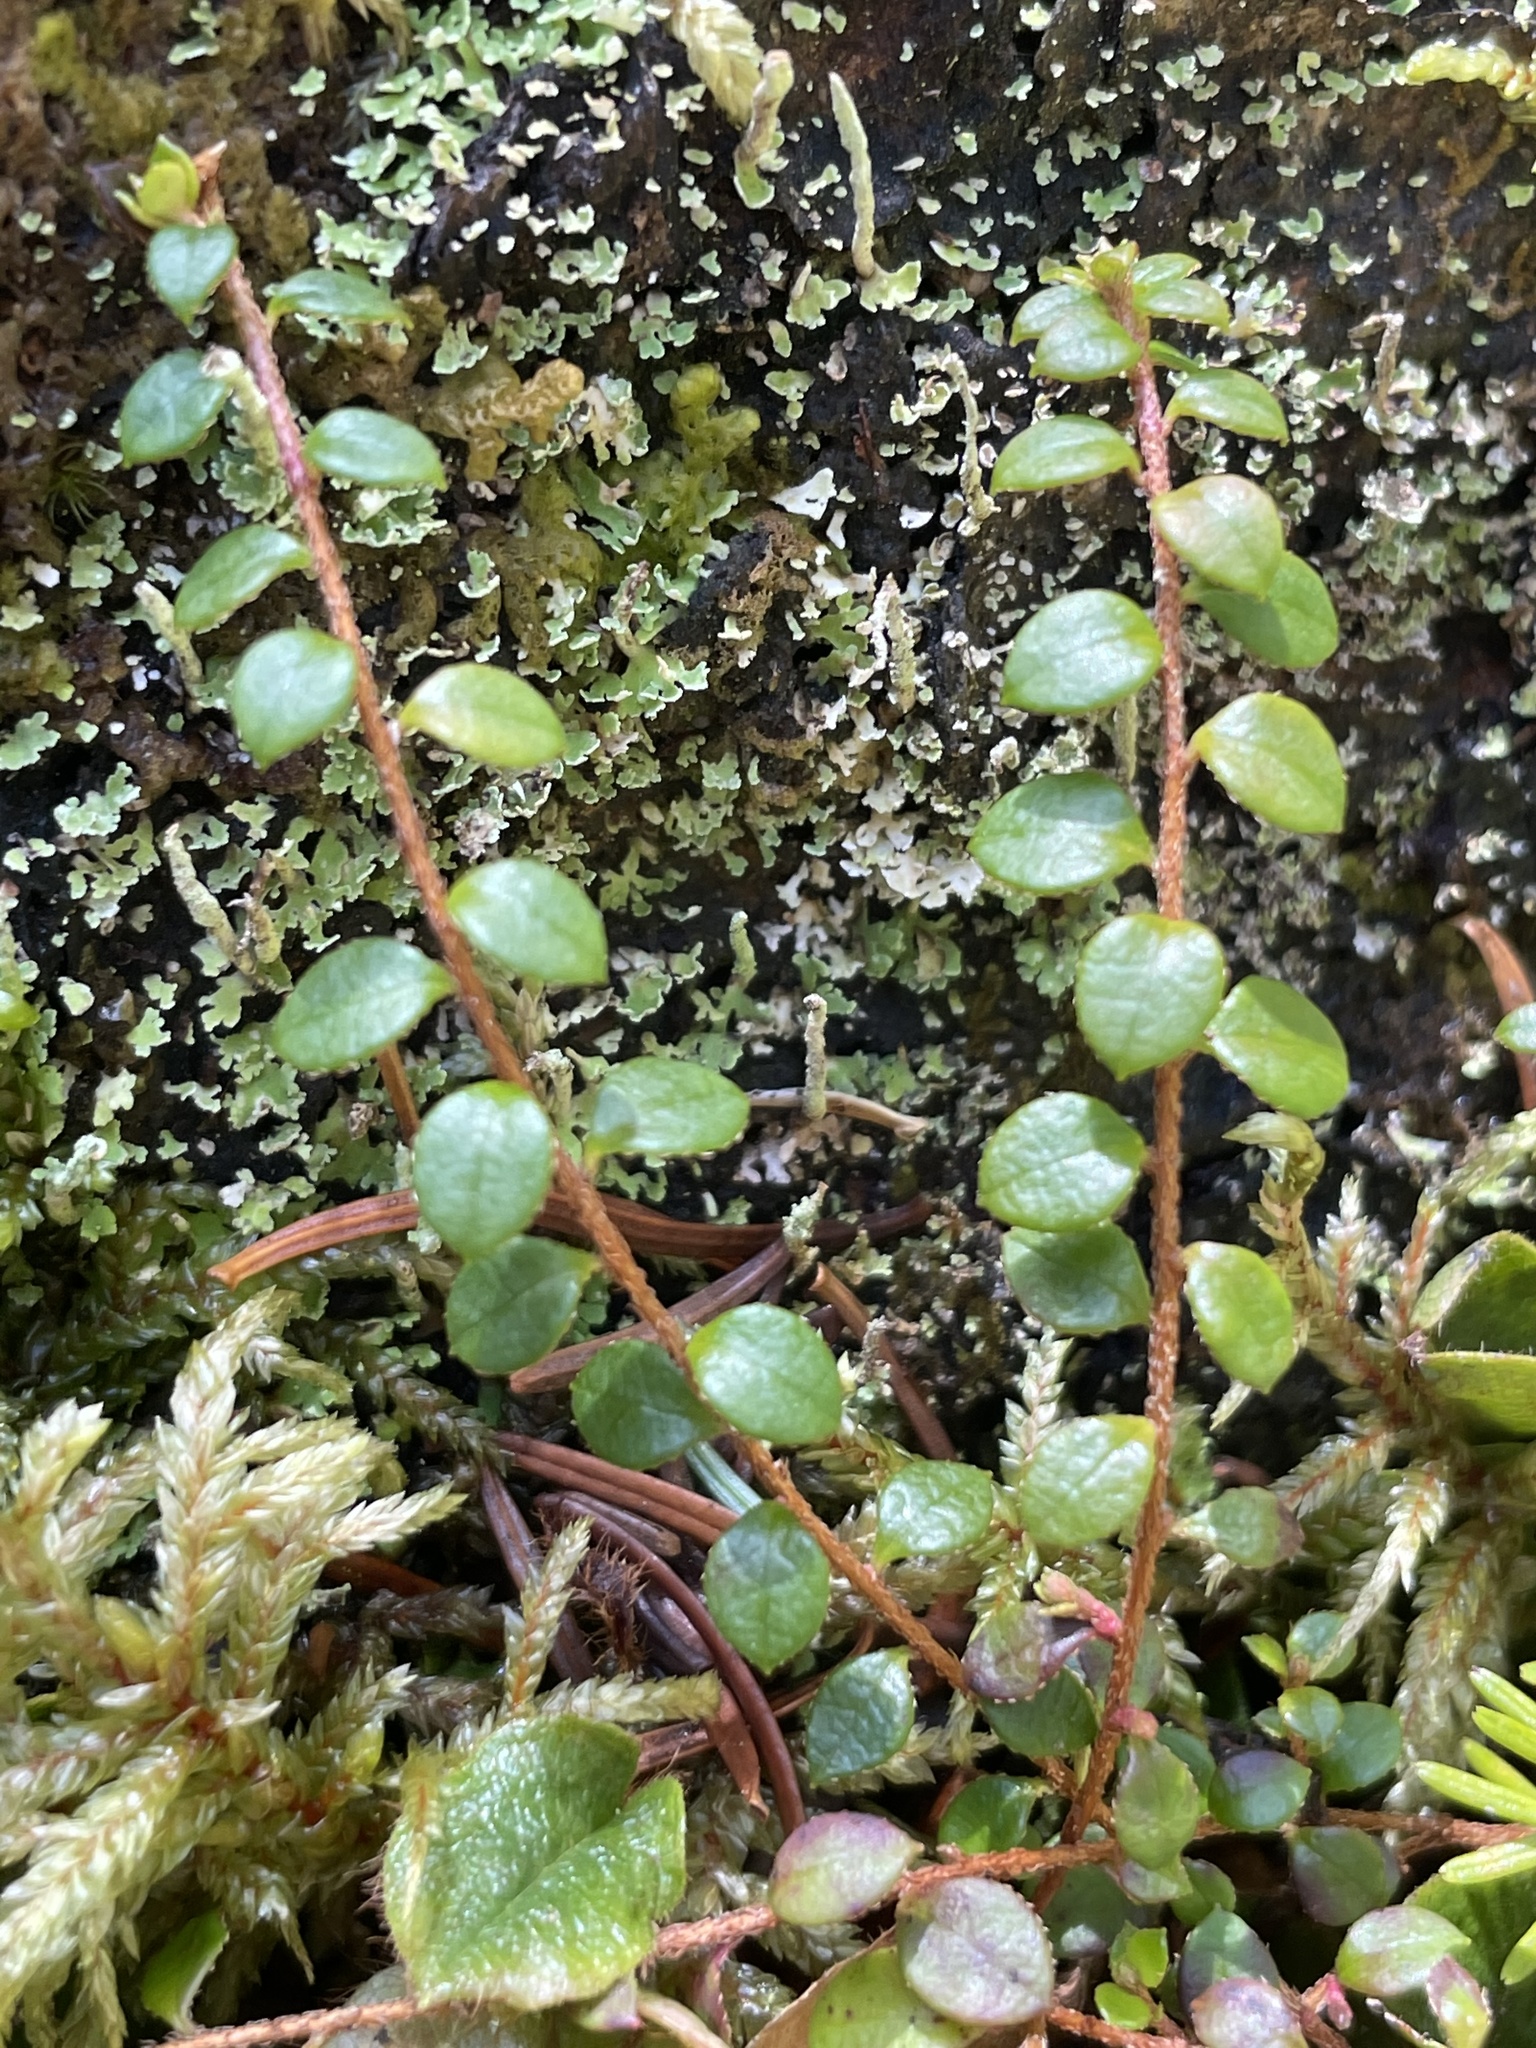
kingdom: Plantae
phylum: Tracheophyta
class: Magnoliopsida
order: Ericales
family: Ericaceae
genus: Gaultheria
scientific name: Gaultheria hispidula
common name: Cancer wintergreen
